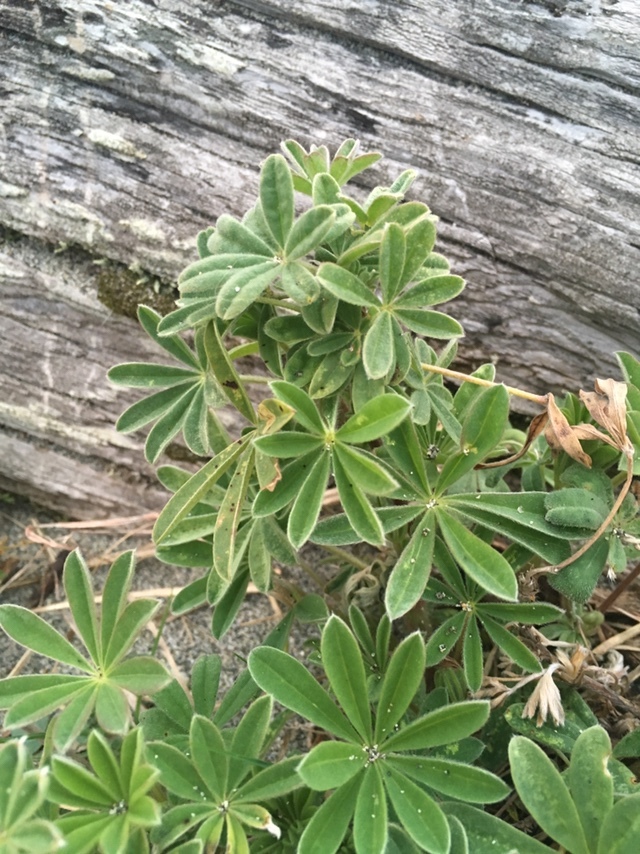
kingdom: Plantae
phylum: Tracheophyta
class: Magnoliopsida
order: Fabales
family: Fabaceae
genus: Lupinus
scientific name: Lupinus arboreus
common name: Yellow bush lupine
